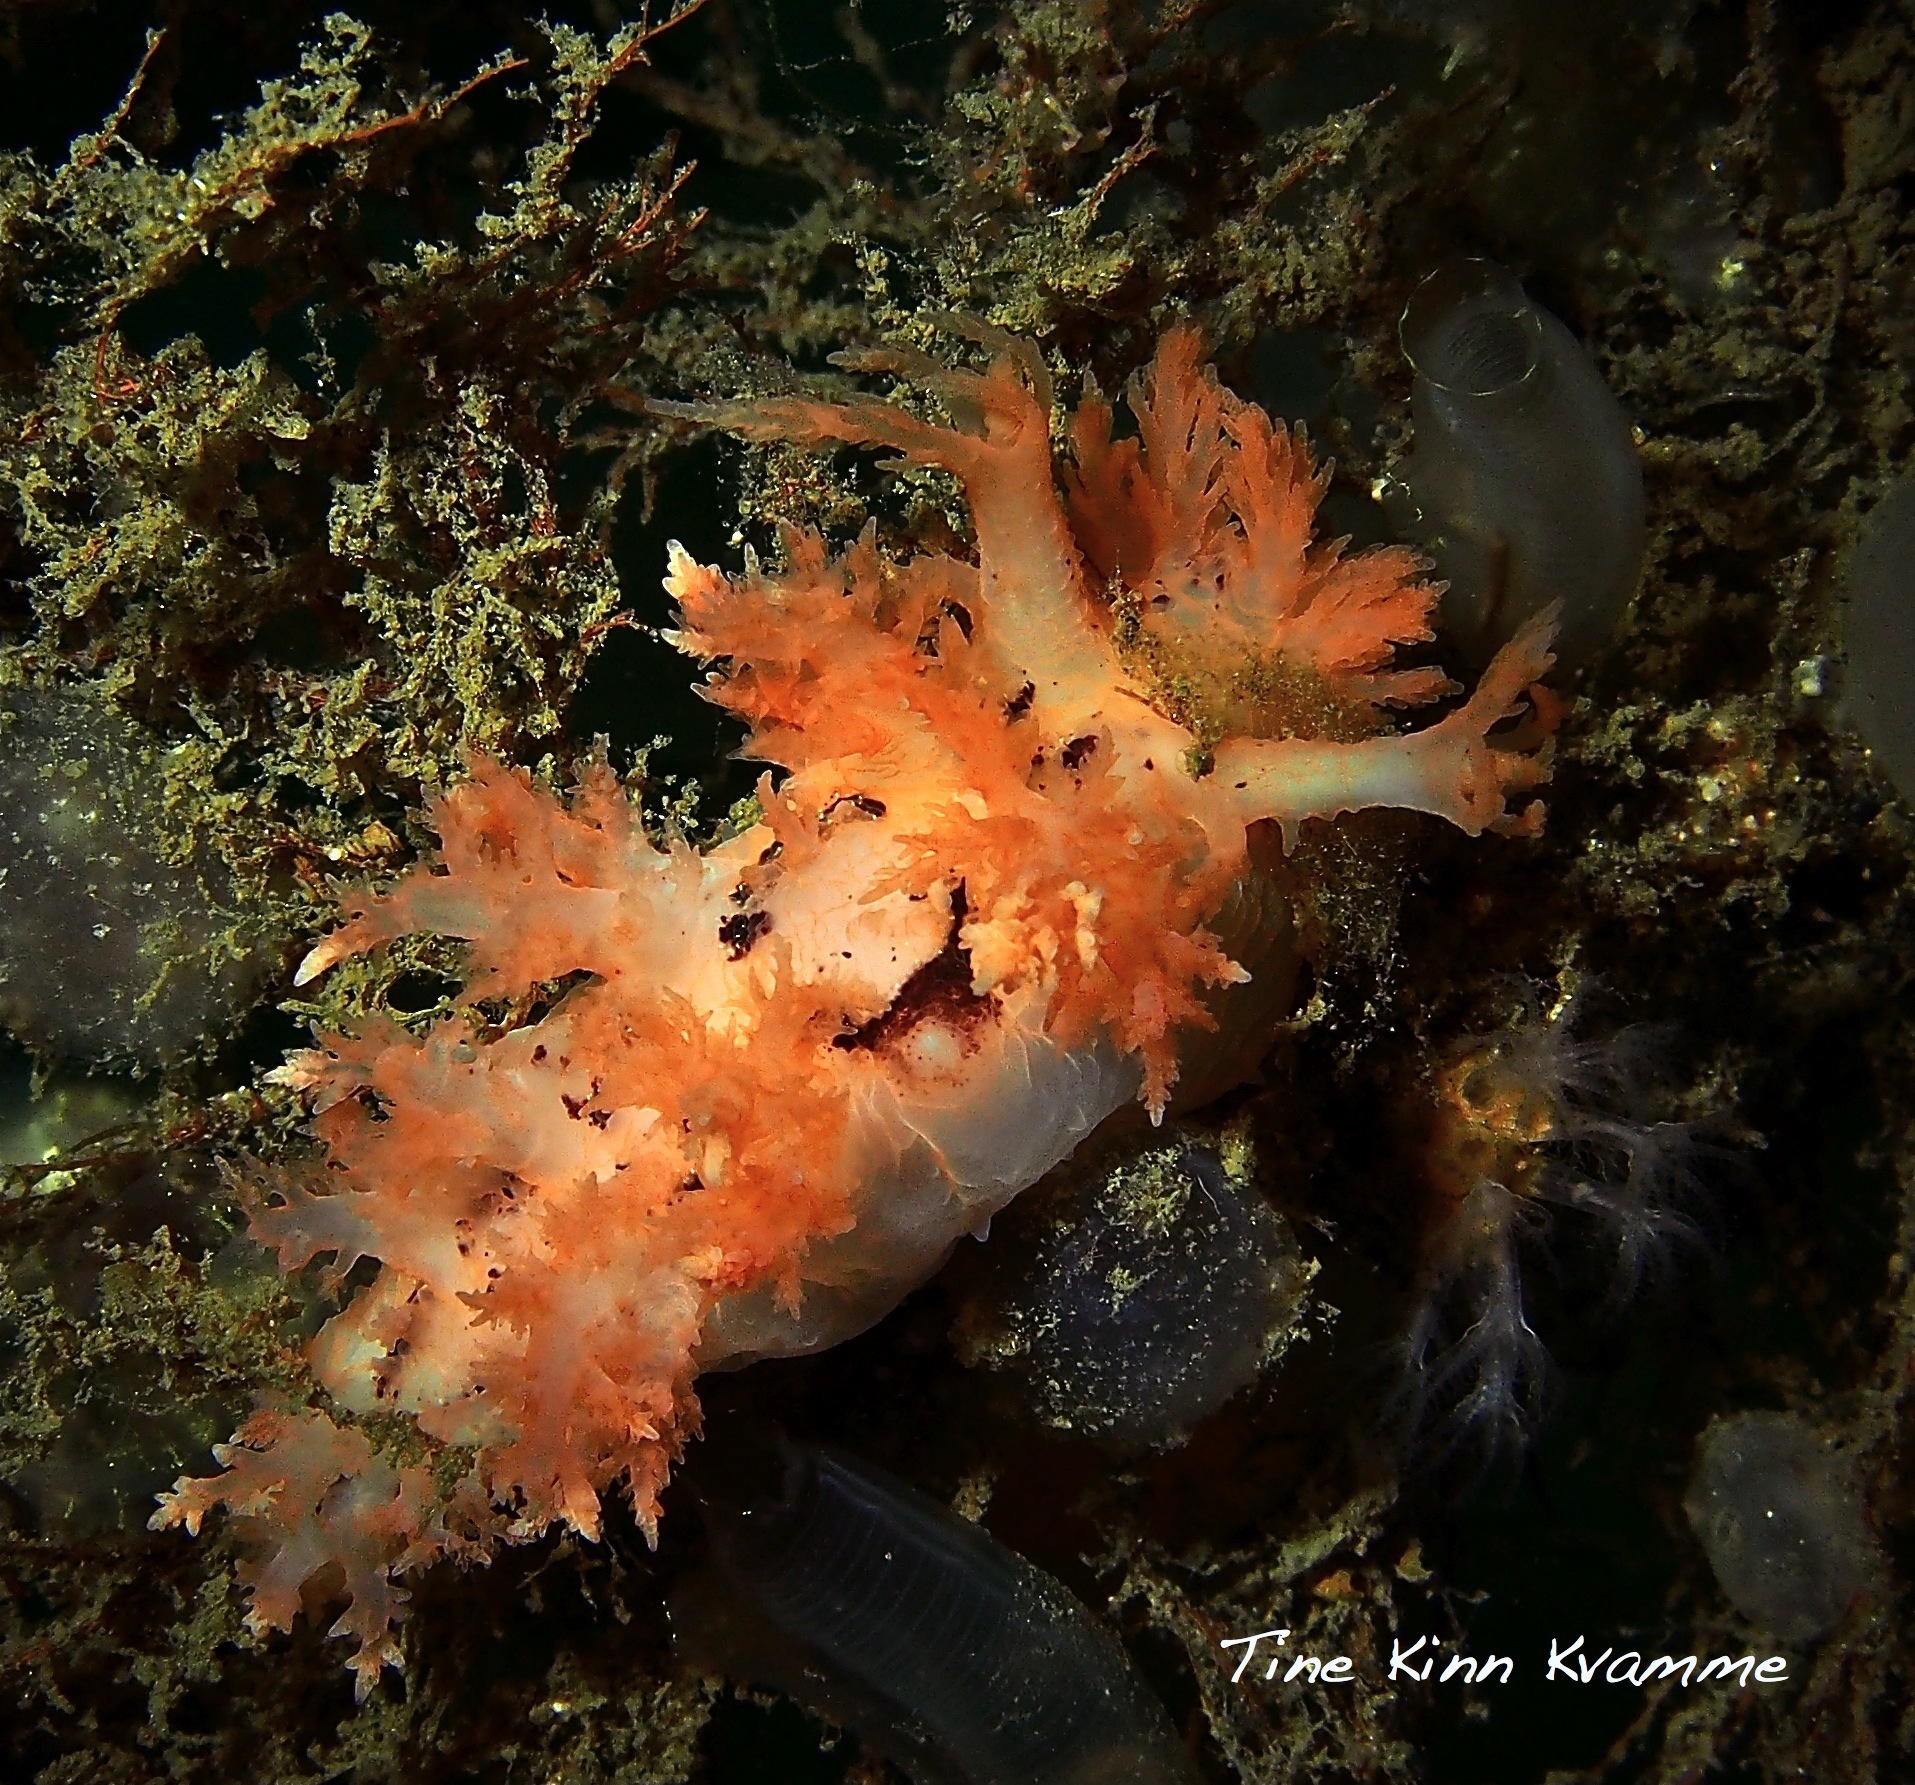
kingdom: Animalia
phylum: Mollusca
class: Gastropoda
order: Nudibranchia
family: Dendronotidae
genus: Dendronotus
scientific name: Dendronotus frondosus
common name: Bushy-backed nudibranch
